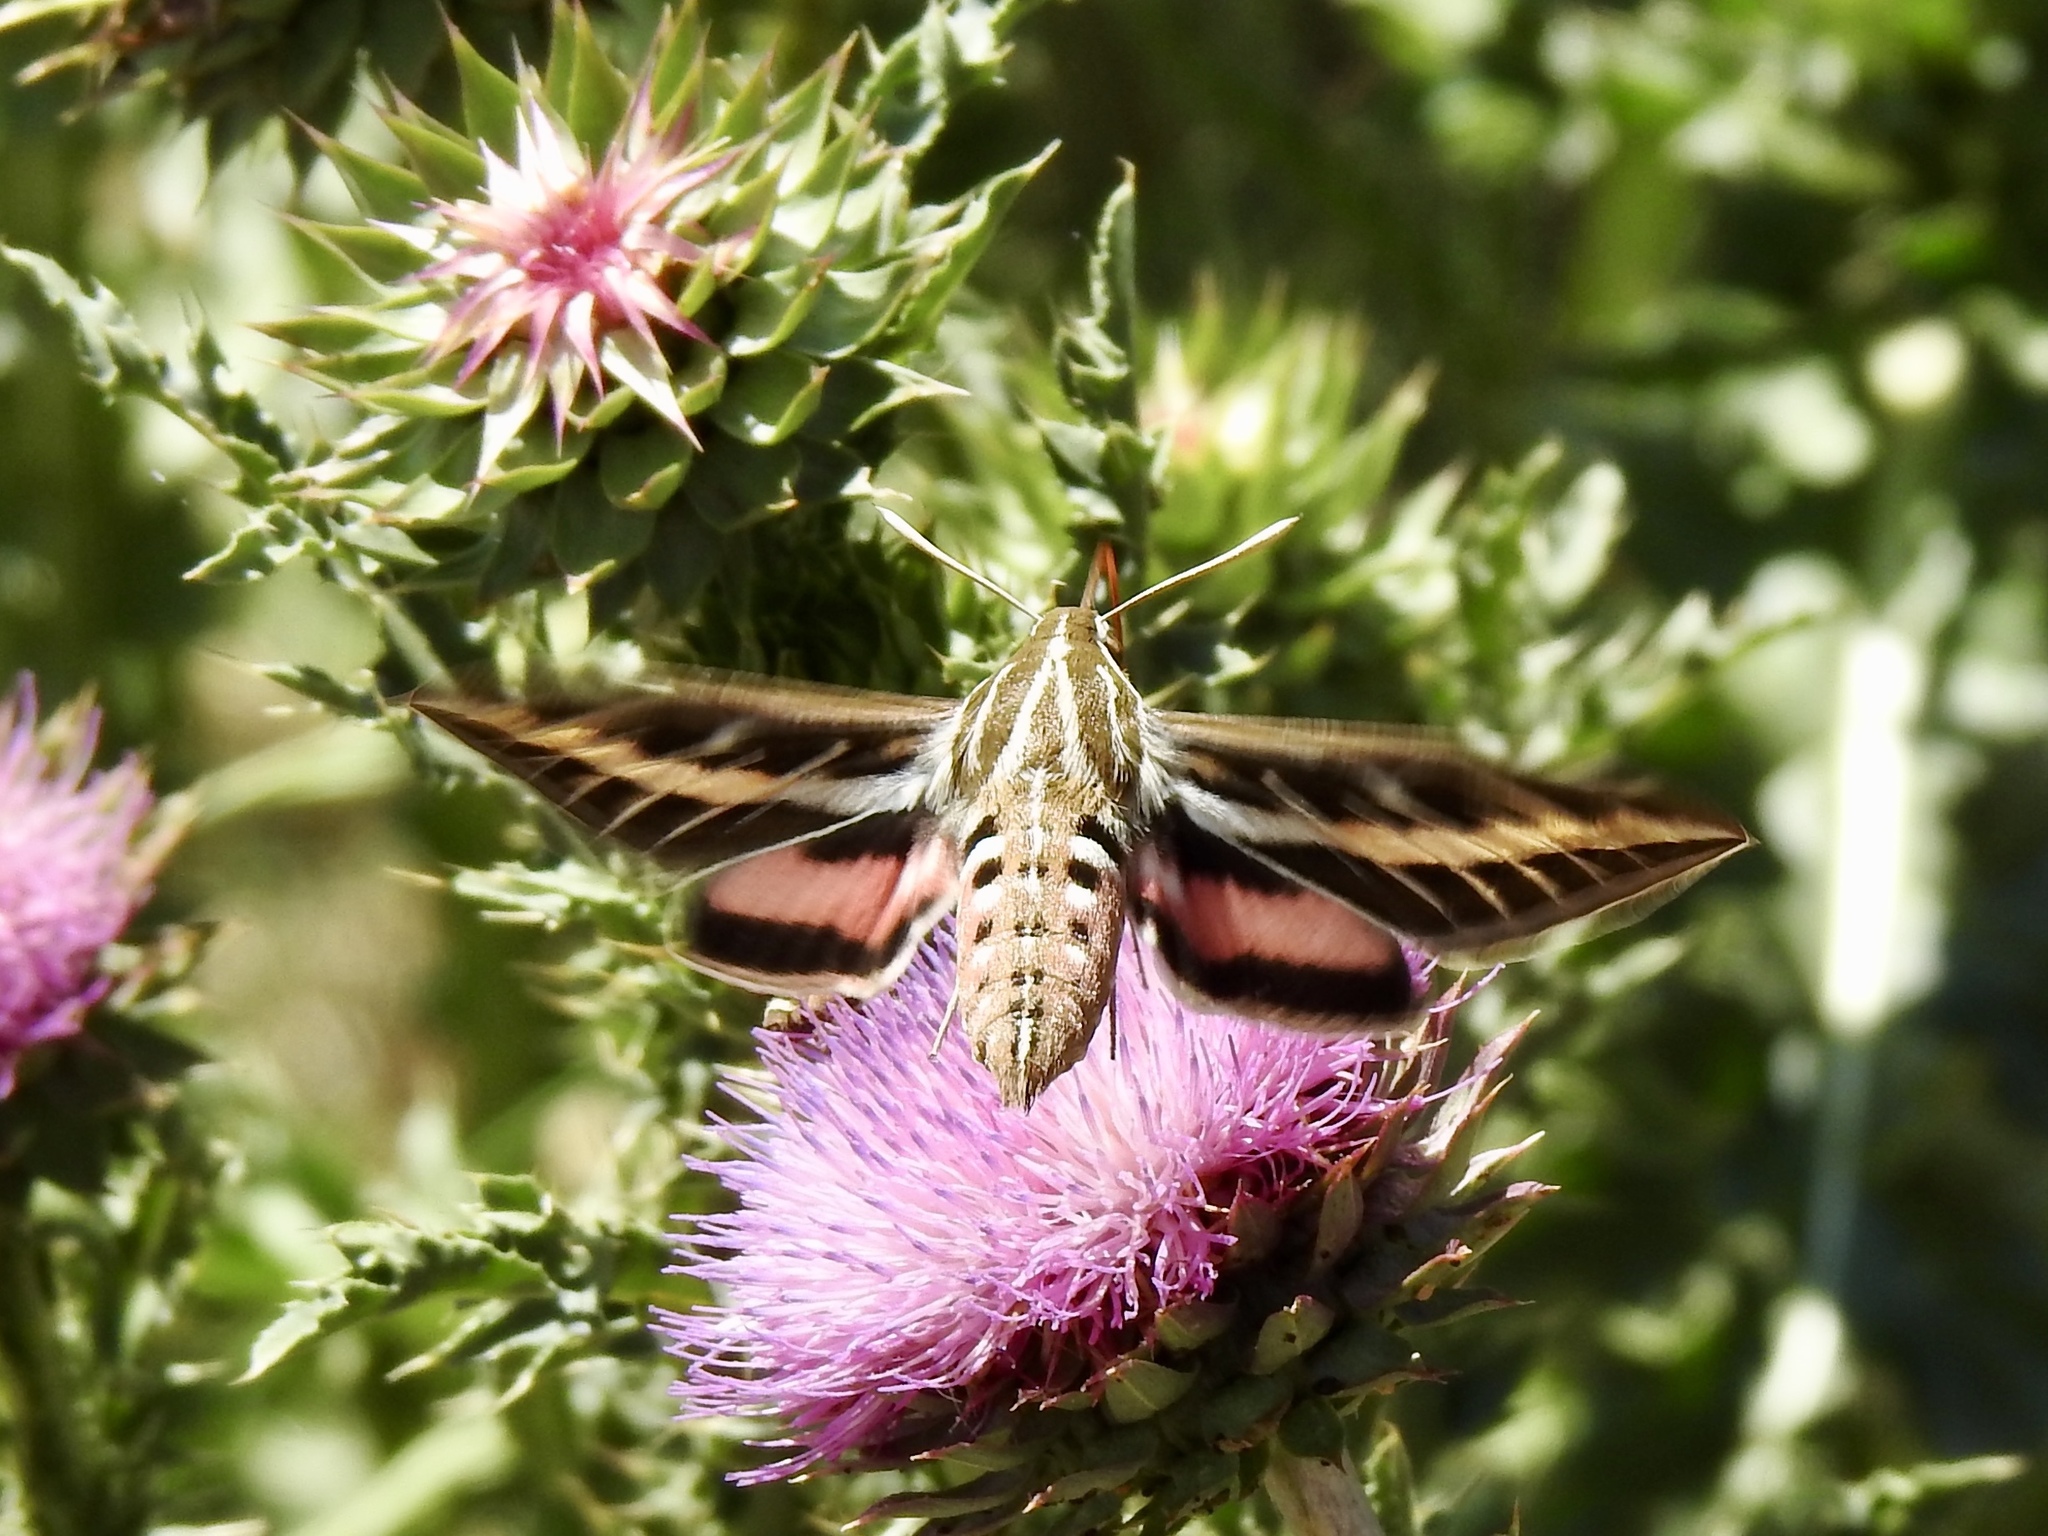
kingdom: Animalia
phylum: Arthropoda
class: Insecta
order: Lepidoptera
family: Sphingidae
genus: Hyles
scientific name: Hyles lineata
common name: White-lined sphinx
